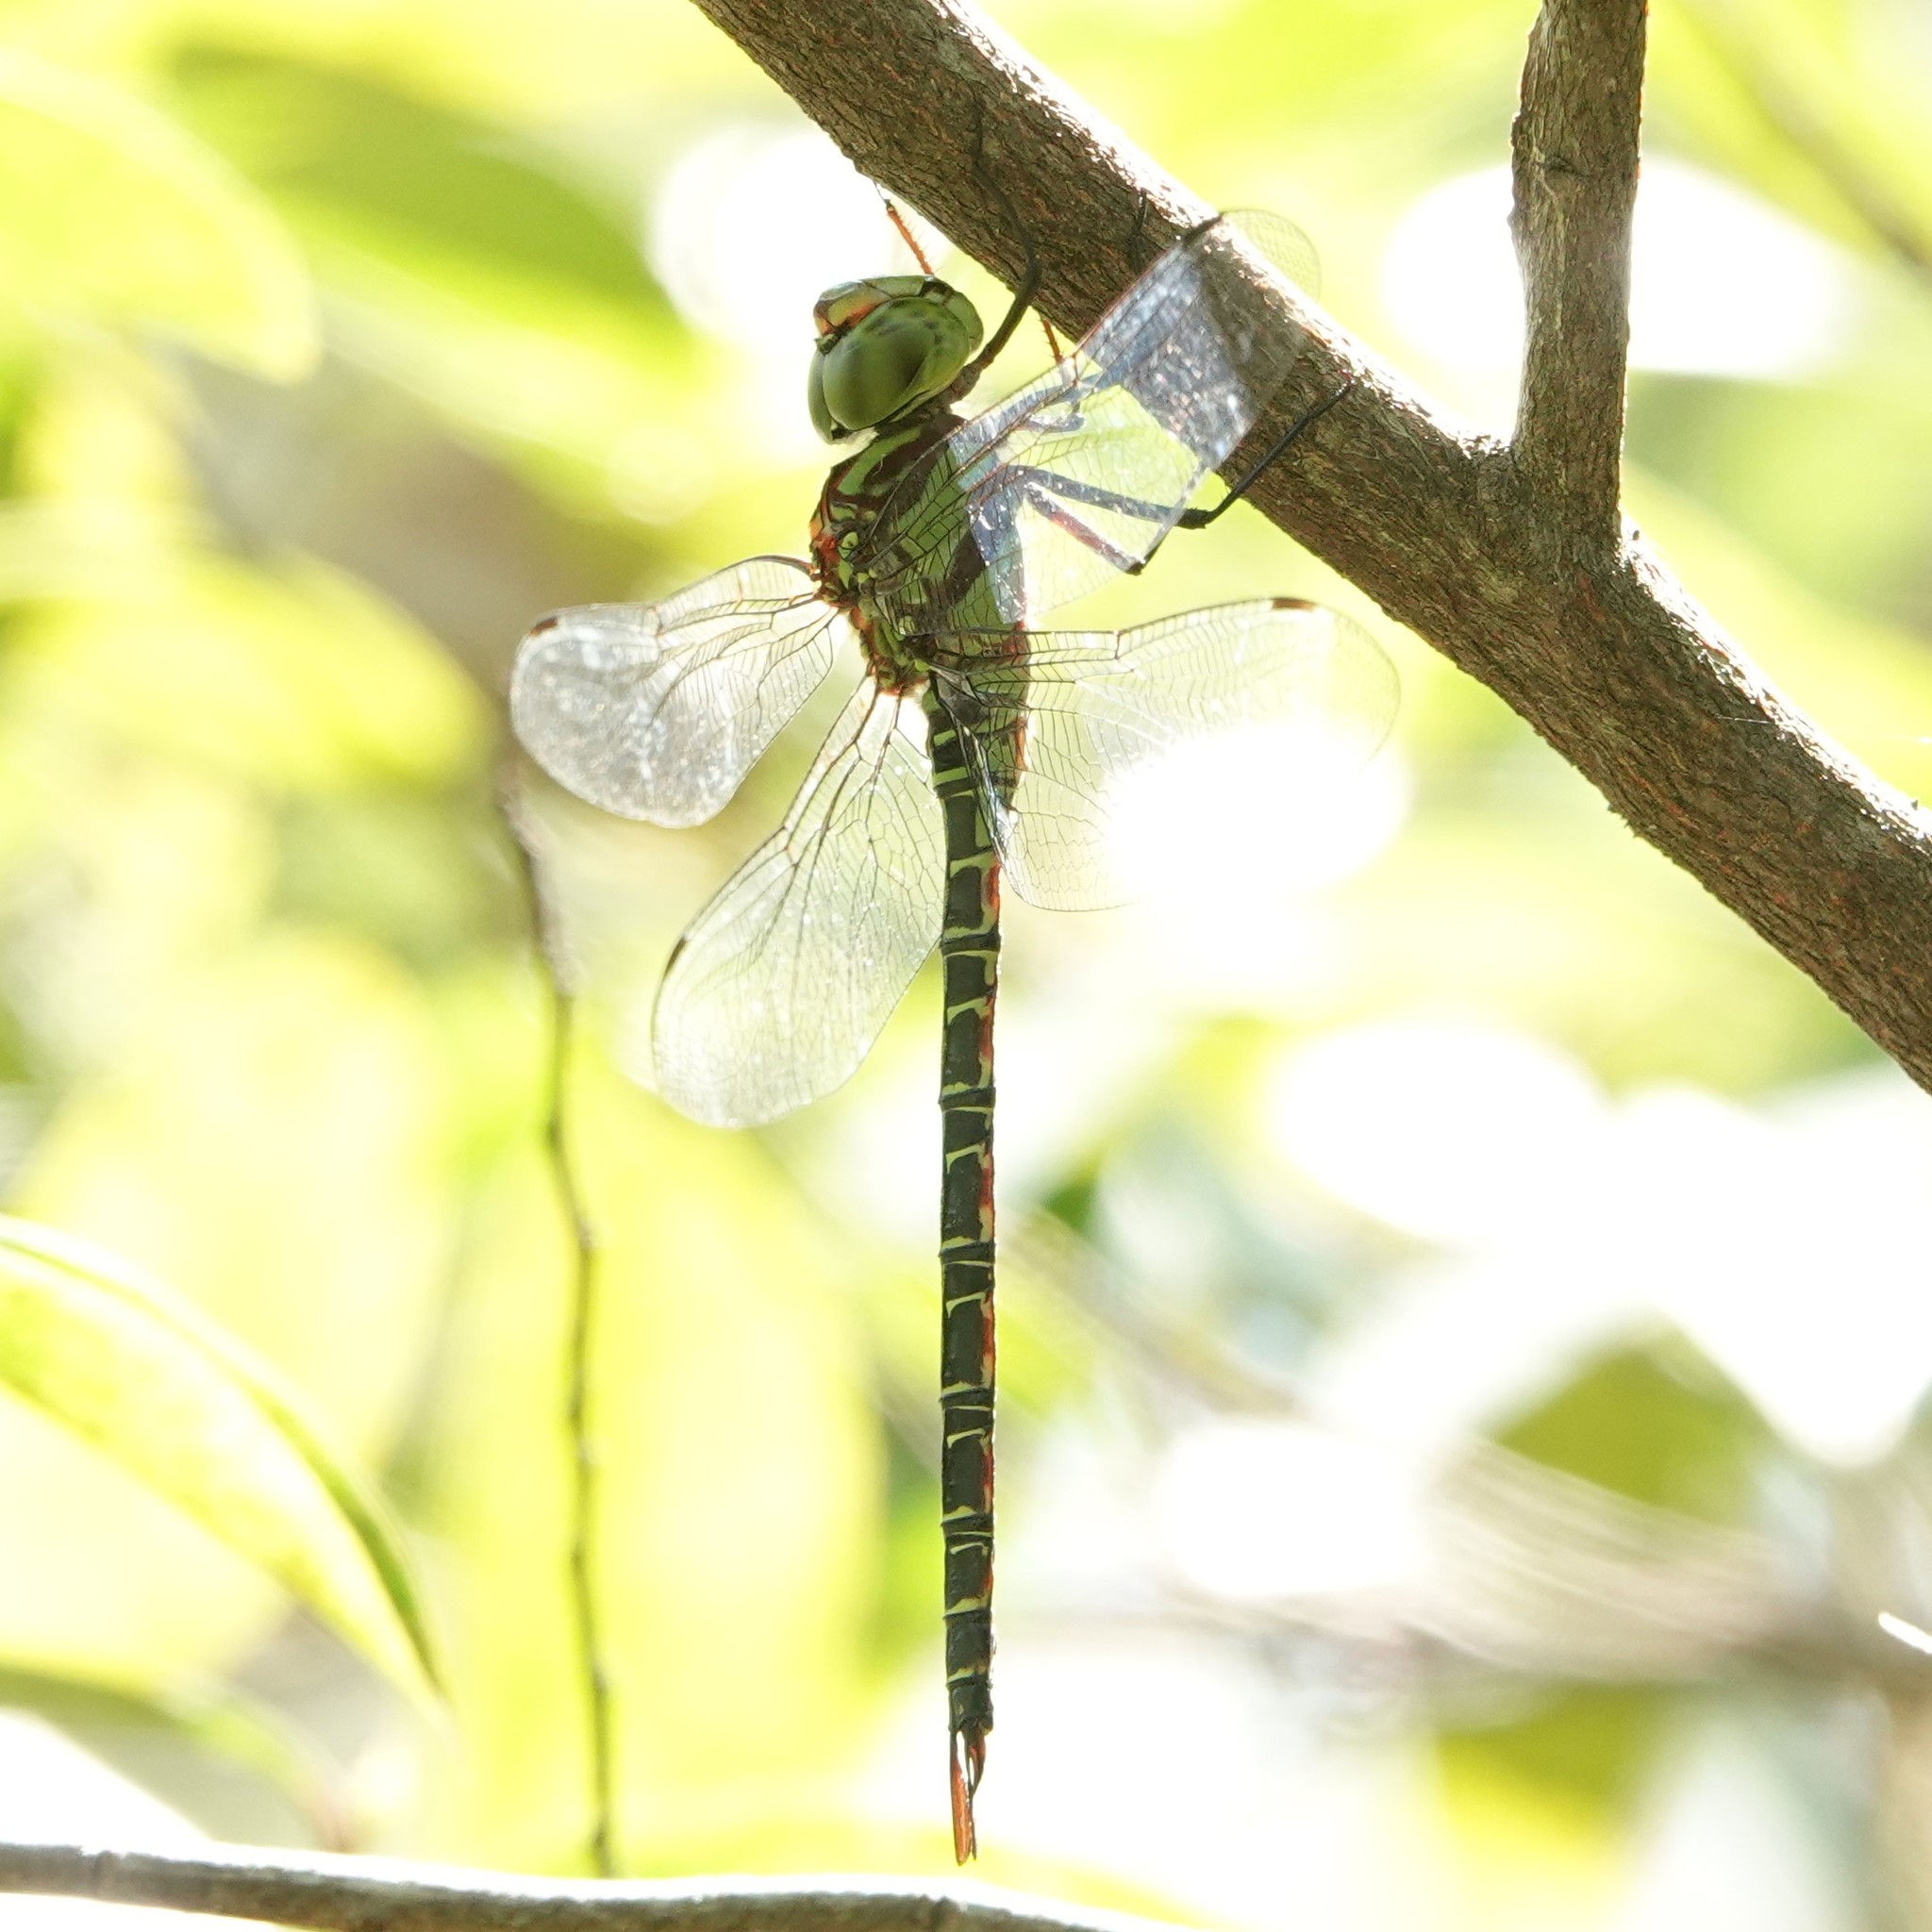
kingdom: Animalia
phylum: Arthropoda
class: Insecta
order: Odonata
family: Aeshnidae
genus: Coryphaeschna
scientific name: Coryphaeschna ingens
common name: Regal darner
